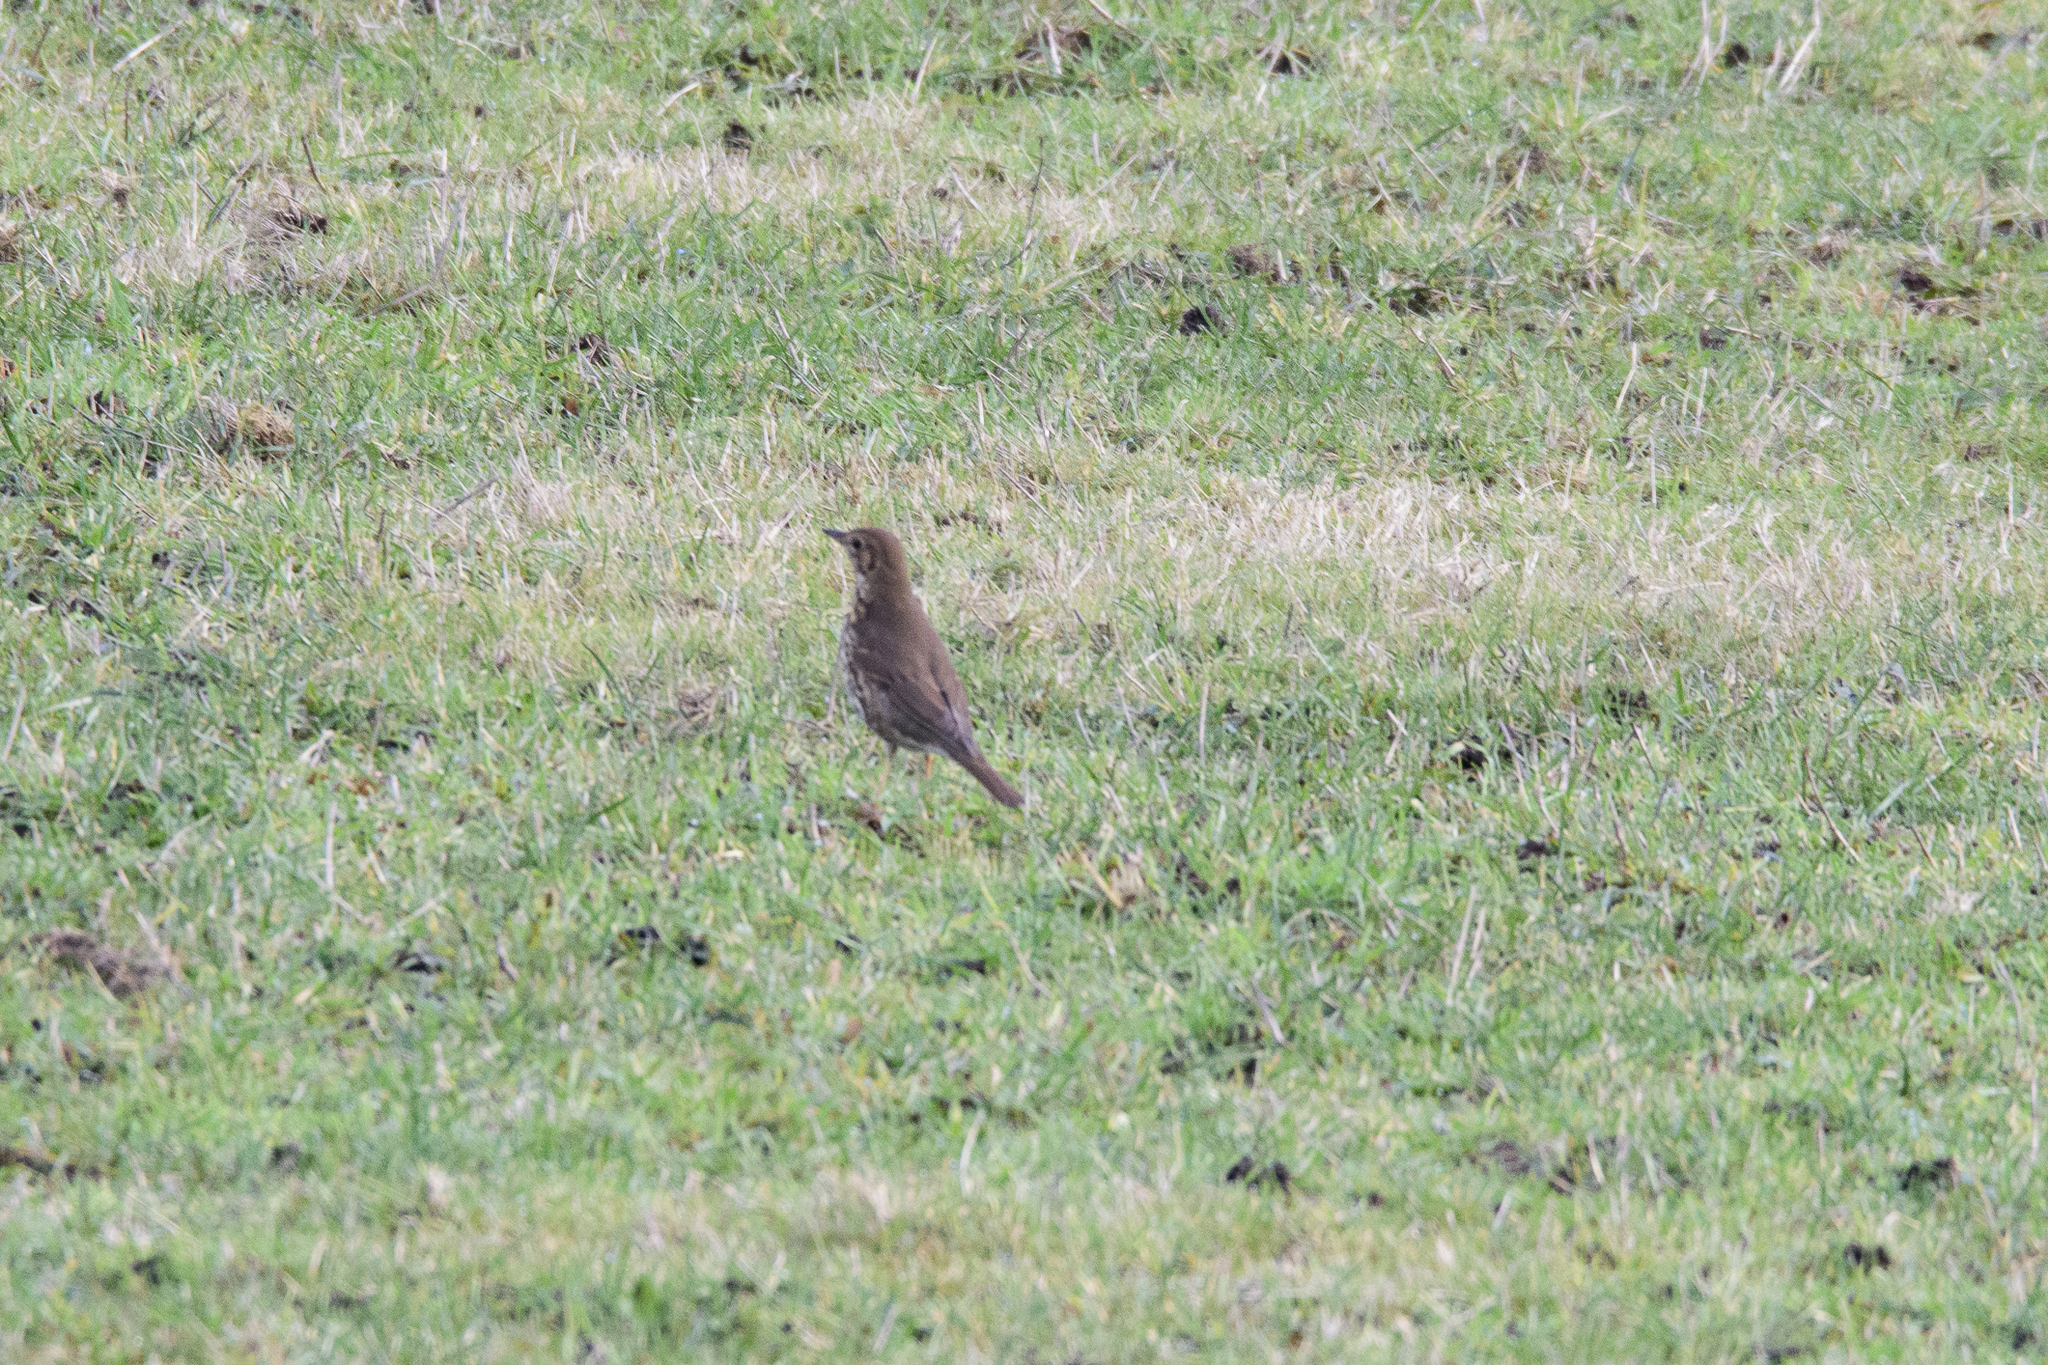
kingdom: Animalia
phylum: Chordata
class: Aves
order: Passeriformes
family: Turdidae
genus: Turdus
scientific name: Turdus viscivorus
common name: Mistle thrush
